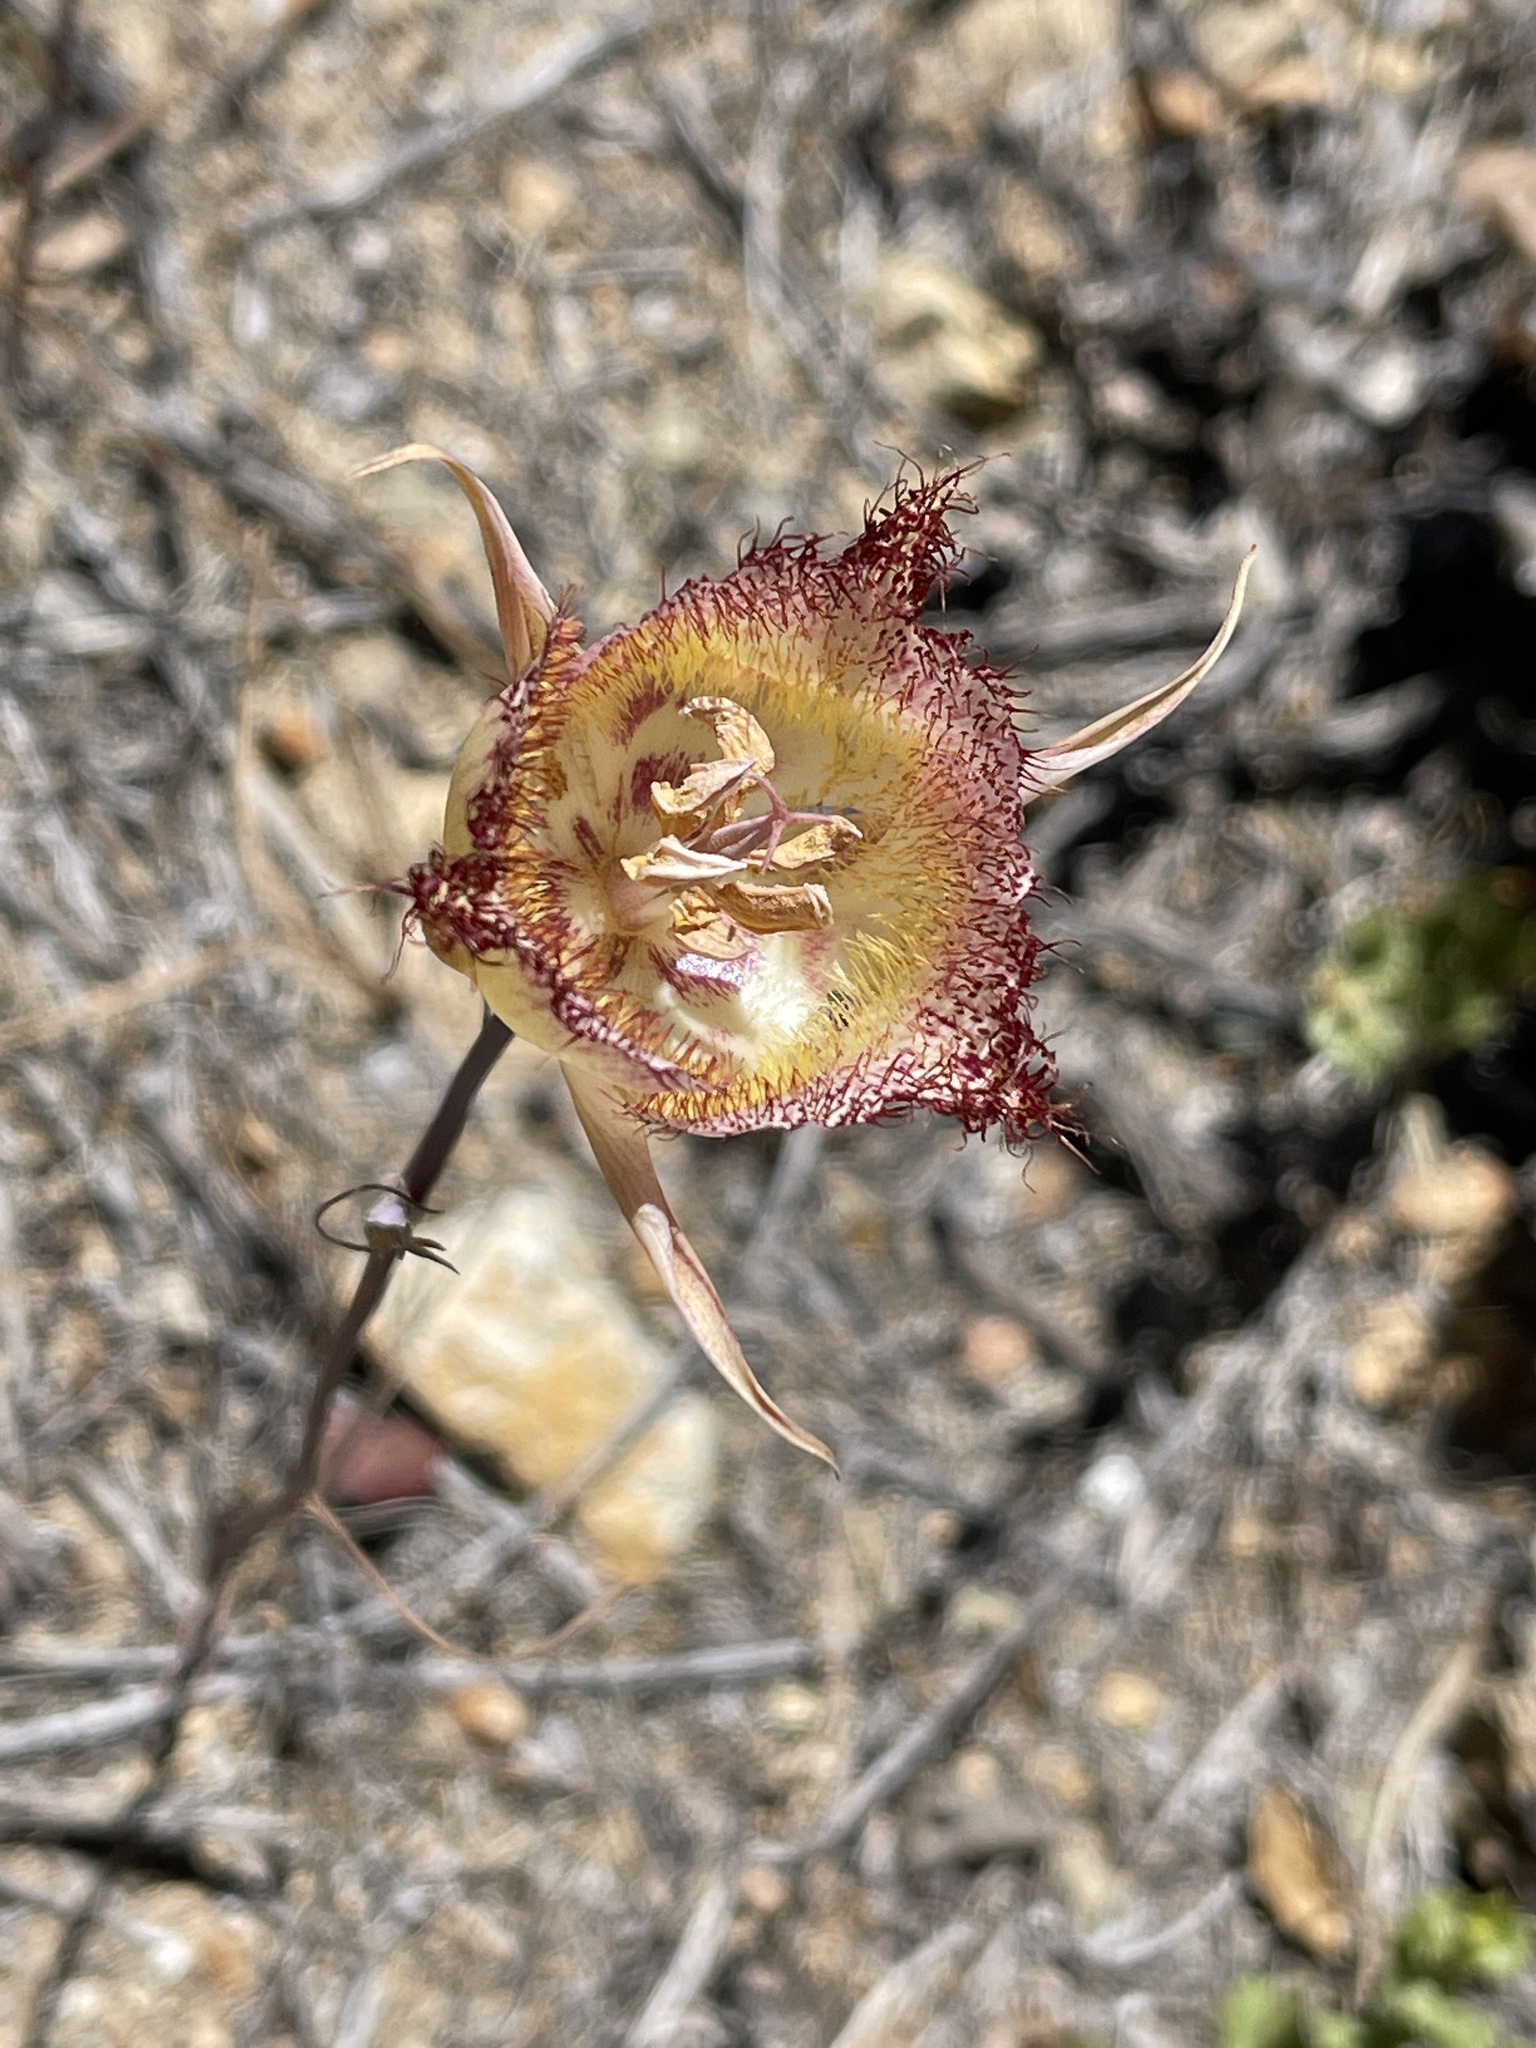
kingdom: Plantae
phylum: Tracheophyta
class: Liliopsida
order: Liliales
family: Liliaceae
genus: Calochortus
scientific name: Calochortus fimbriatus
